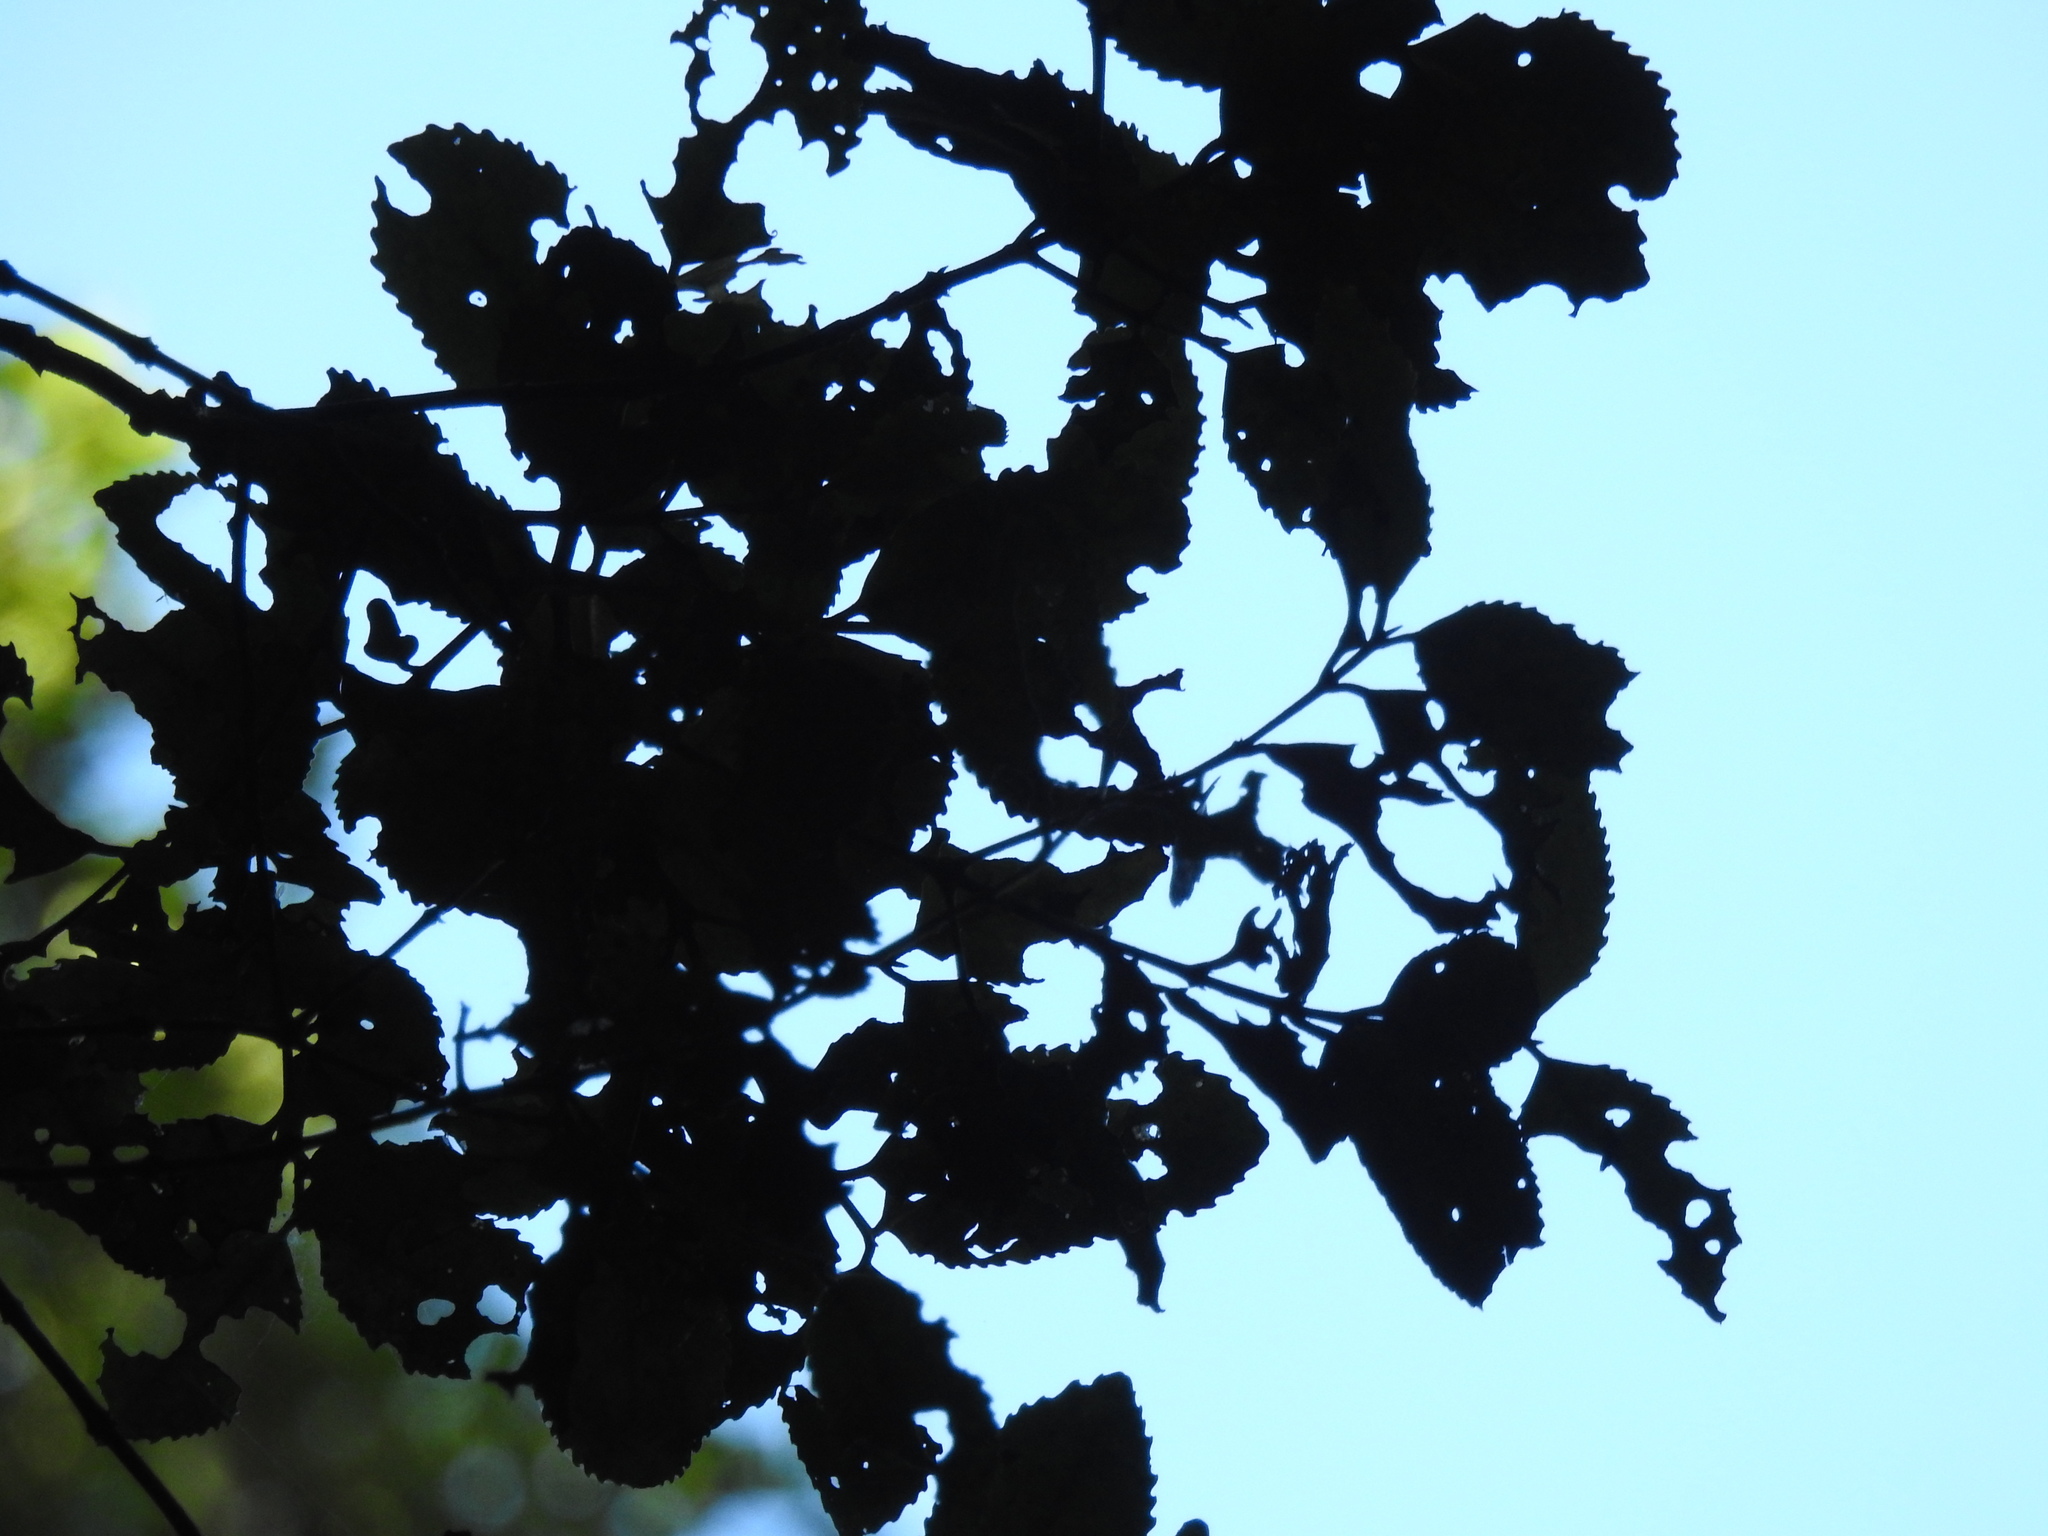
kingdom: Plantae
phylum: Tracheophyta
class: Magnoliopsida
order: Laurales
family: Atherospermataceae
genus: Laurelia
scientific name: Laurelia novae-zelandiae
